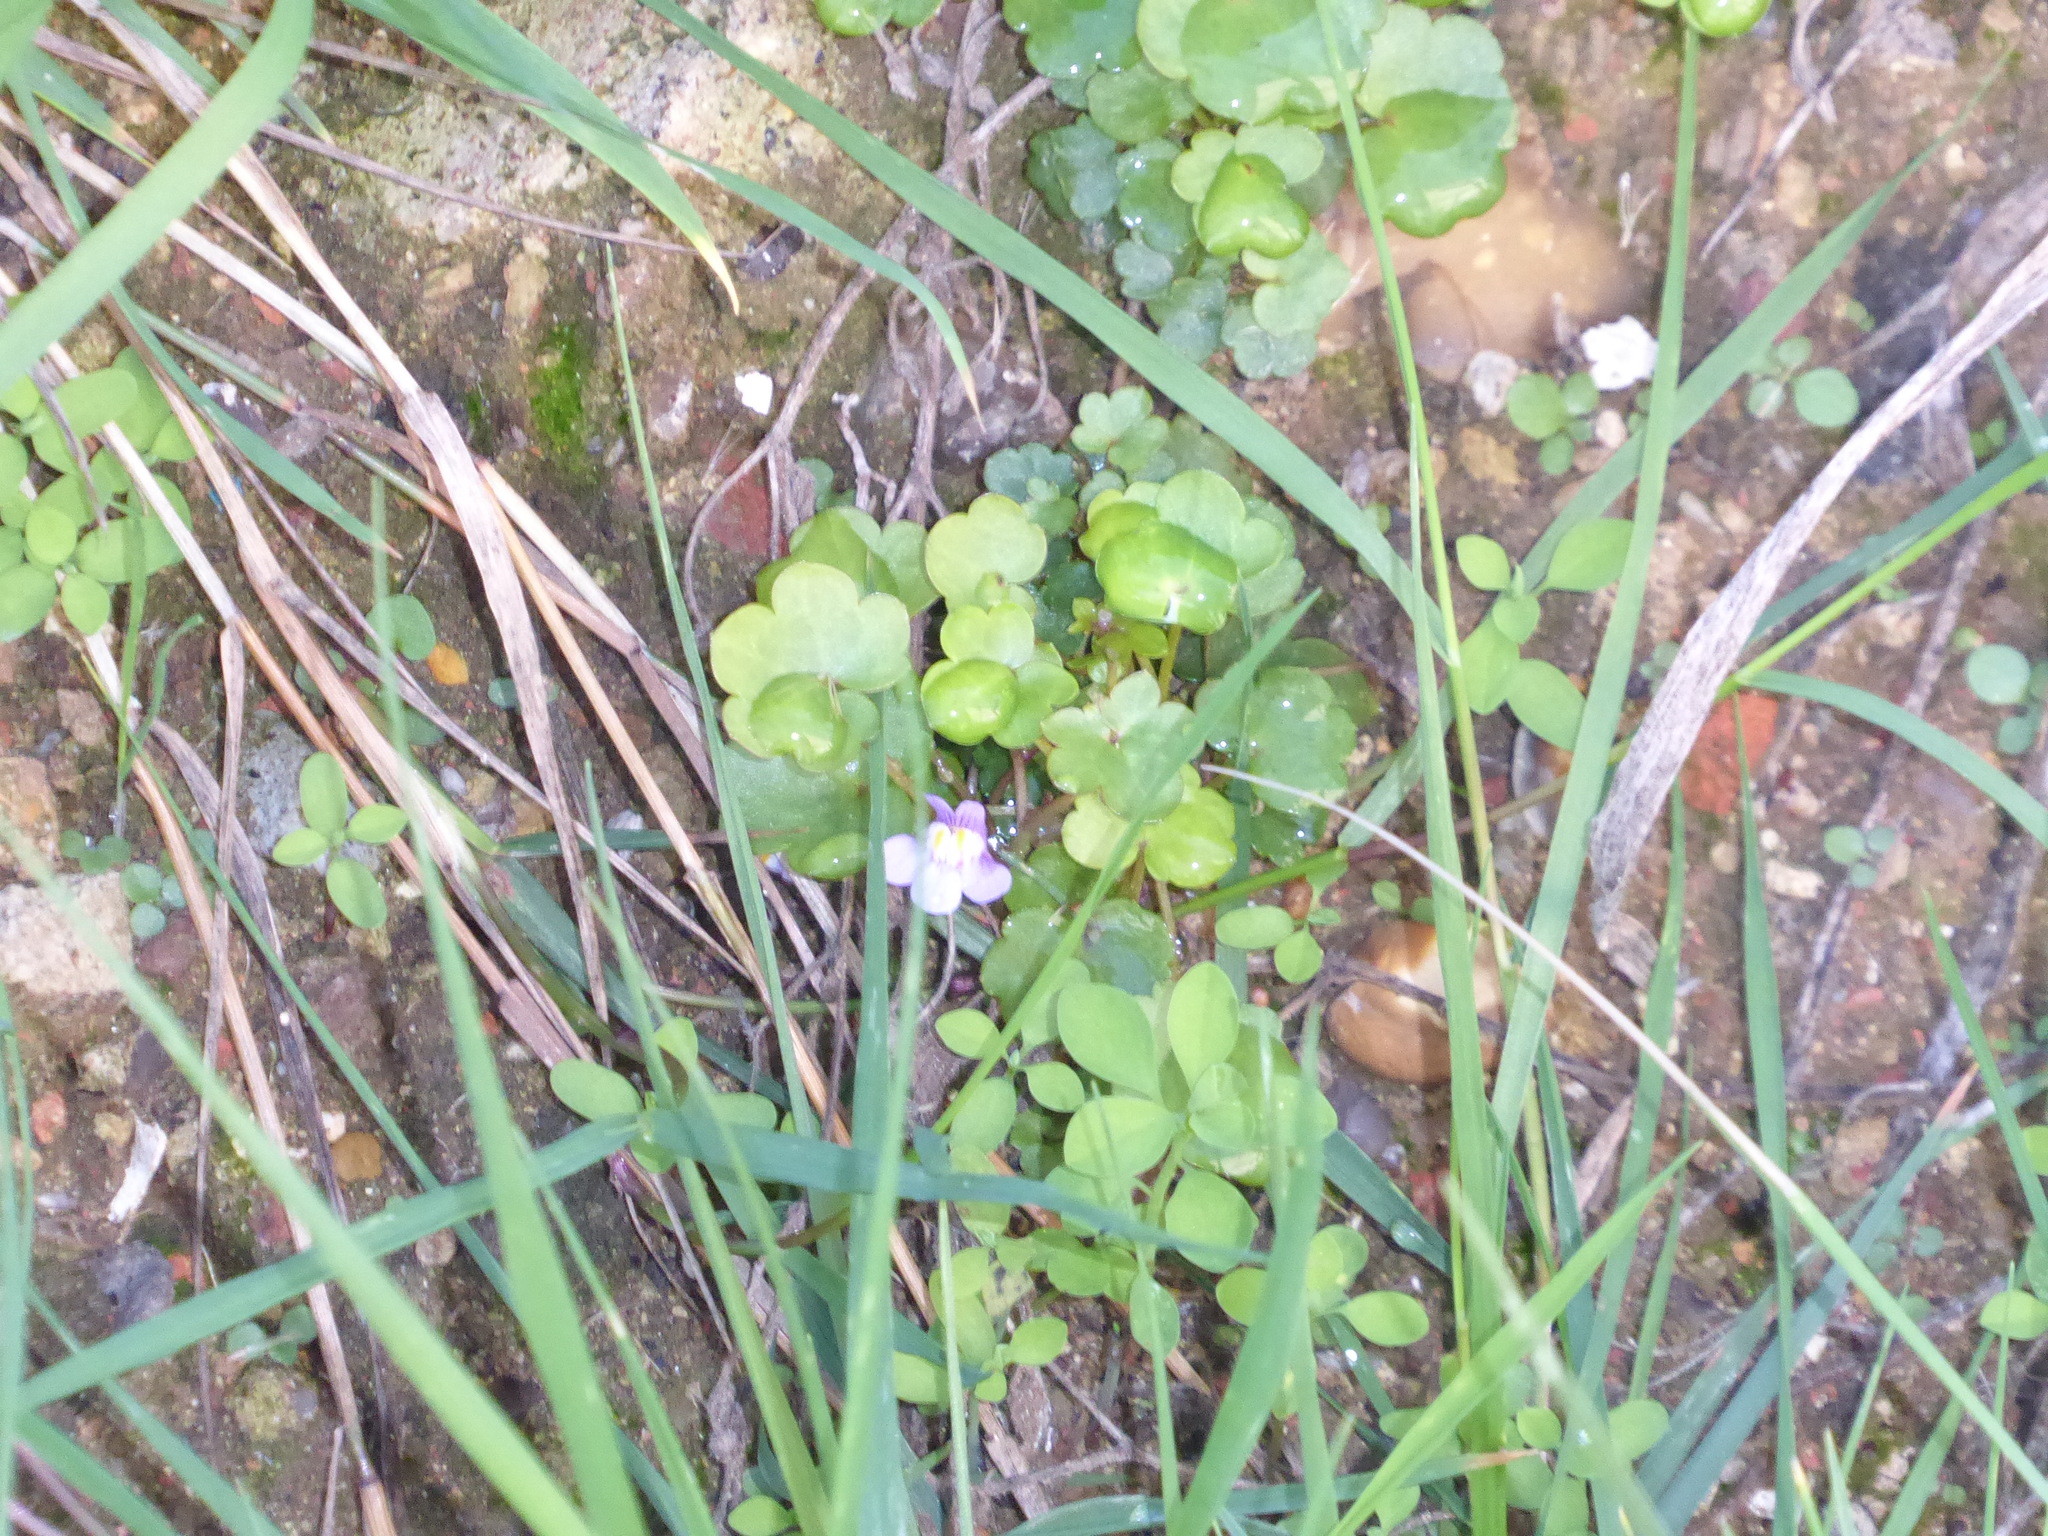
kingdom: Plantae
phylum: Tracheophyta
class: Magnoliopsida
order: Lamiales
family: Plantaginaceae
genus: Cymbalaria
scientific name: Cymbalaria muralis
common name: Ivy-leaved toadflax
